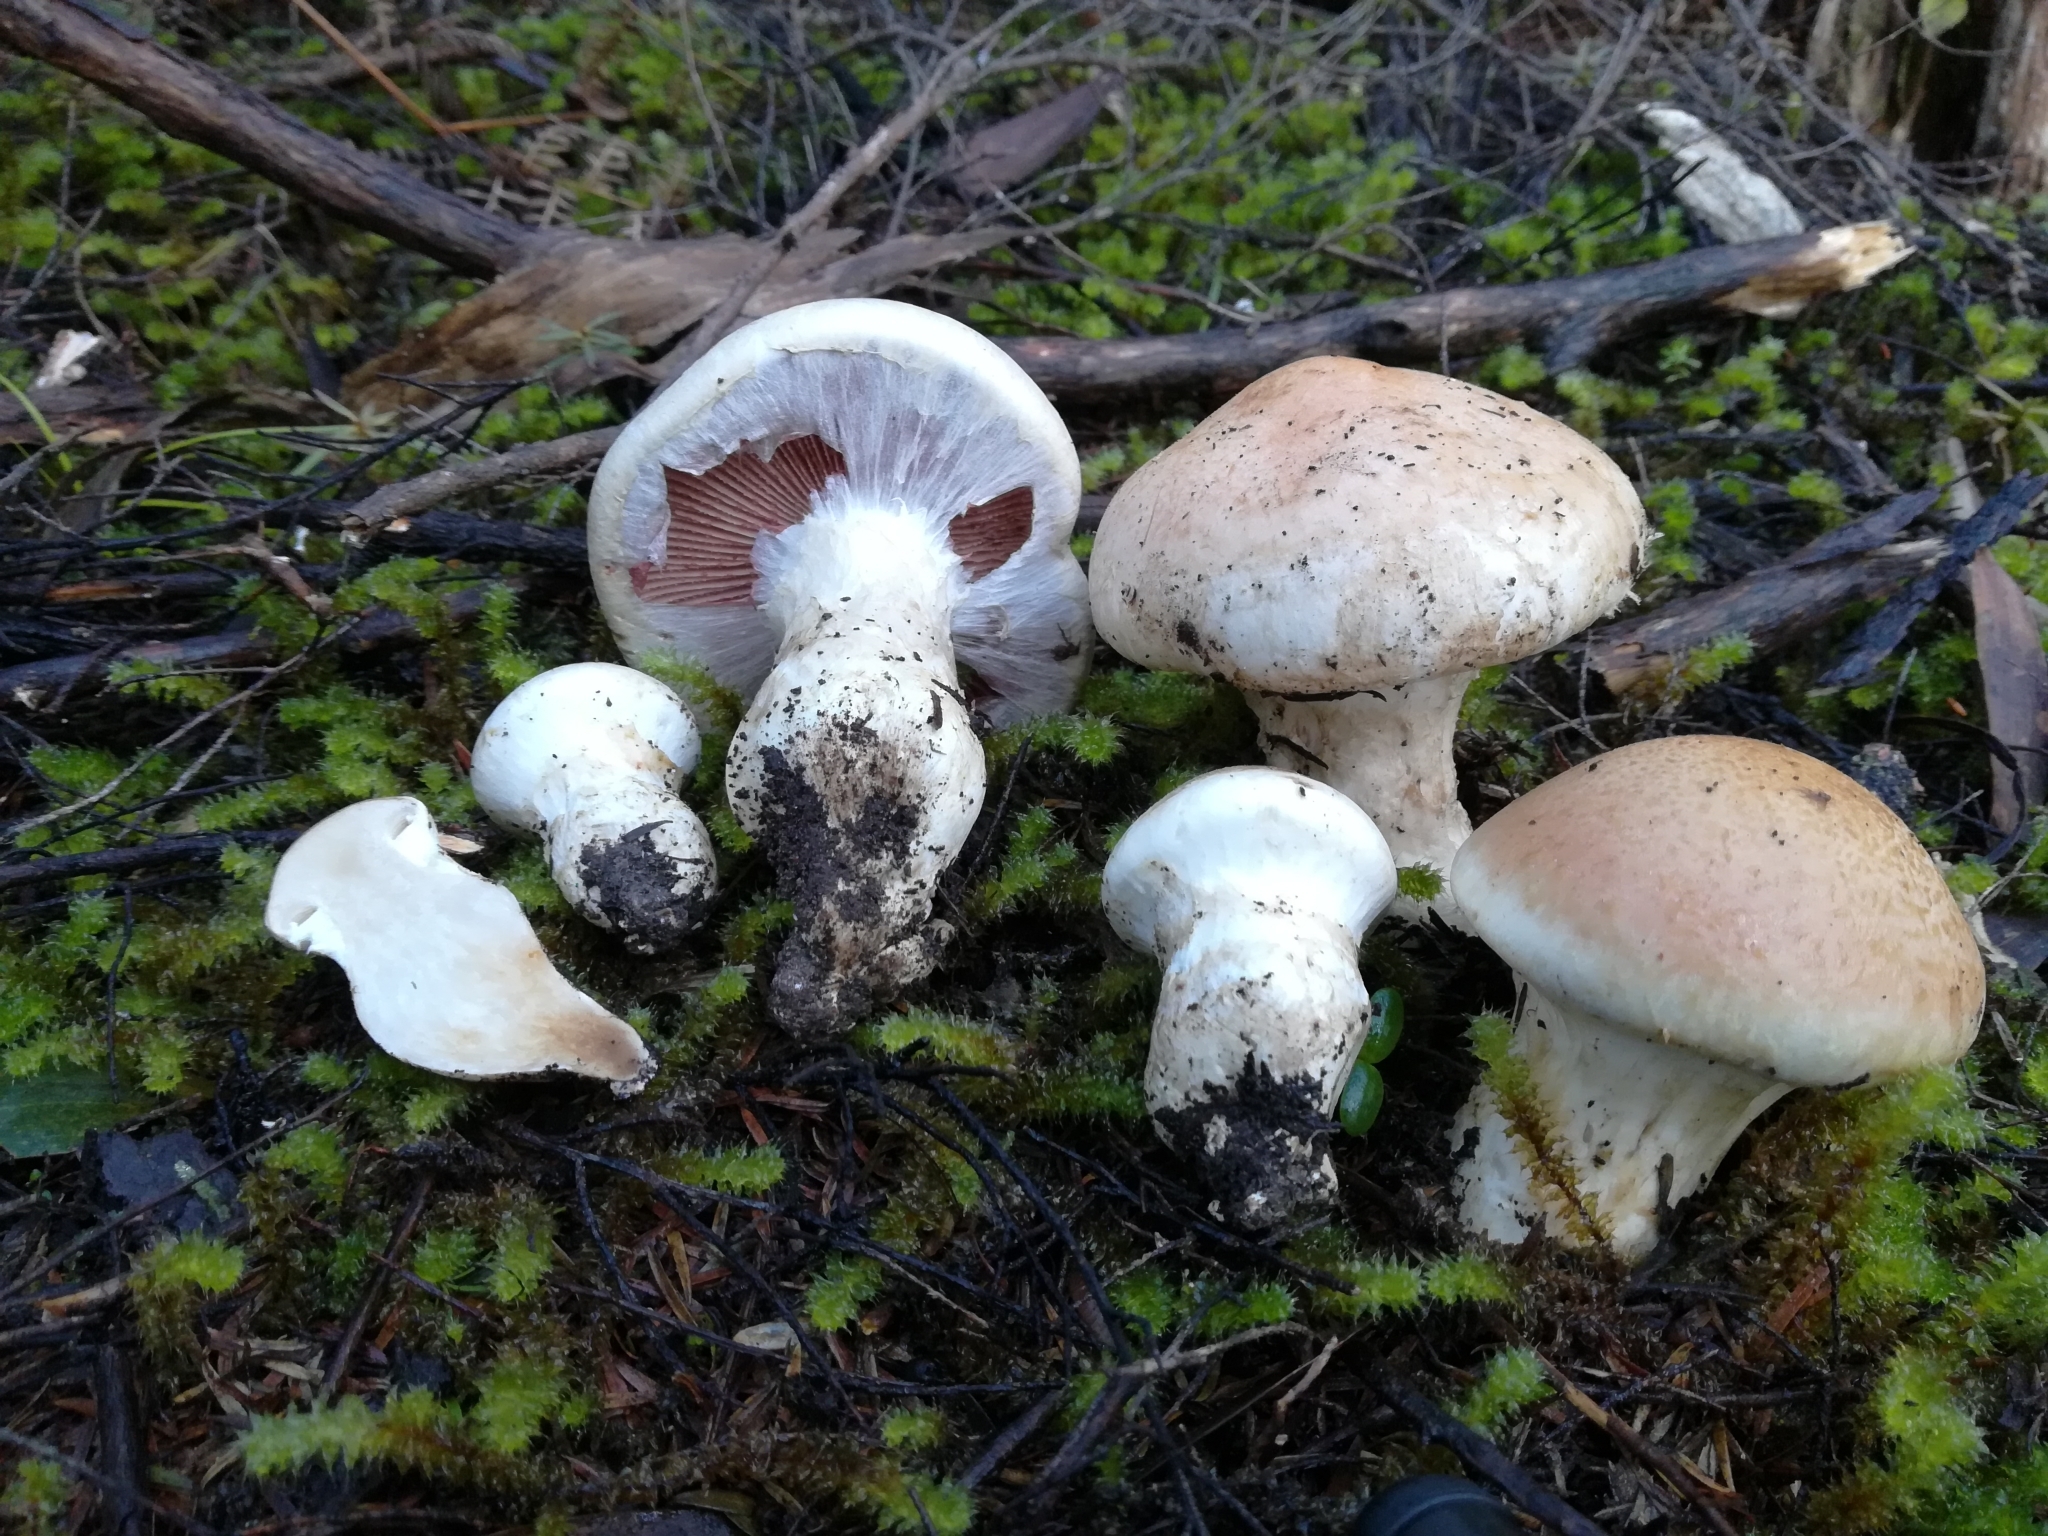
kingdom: Fungi
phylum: Basidiomycota
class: Agaricomycetes
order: Agaricales
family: Hymenogastraceae
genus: Hebeloma
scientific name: Hebeloma victoriense
